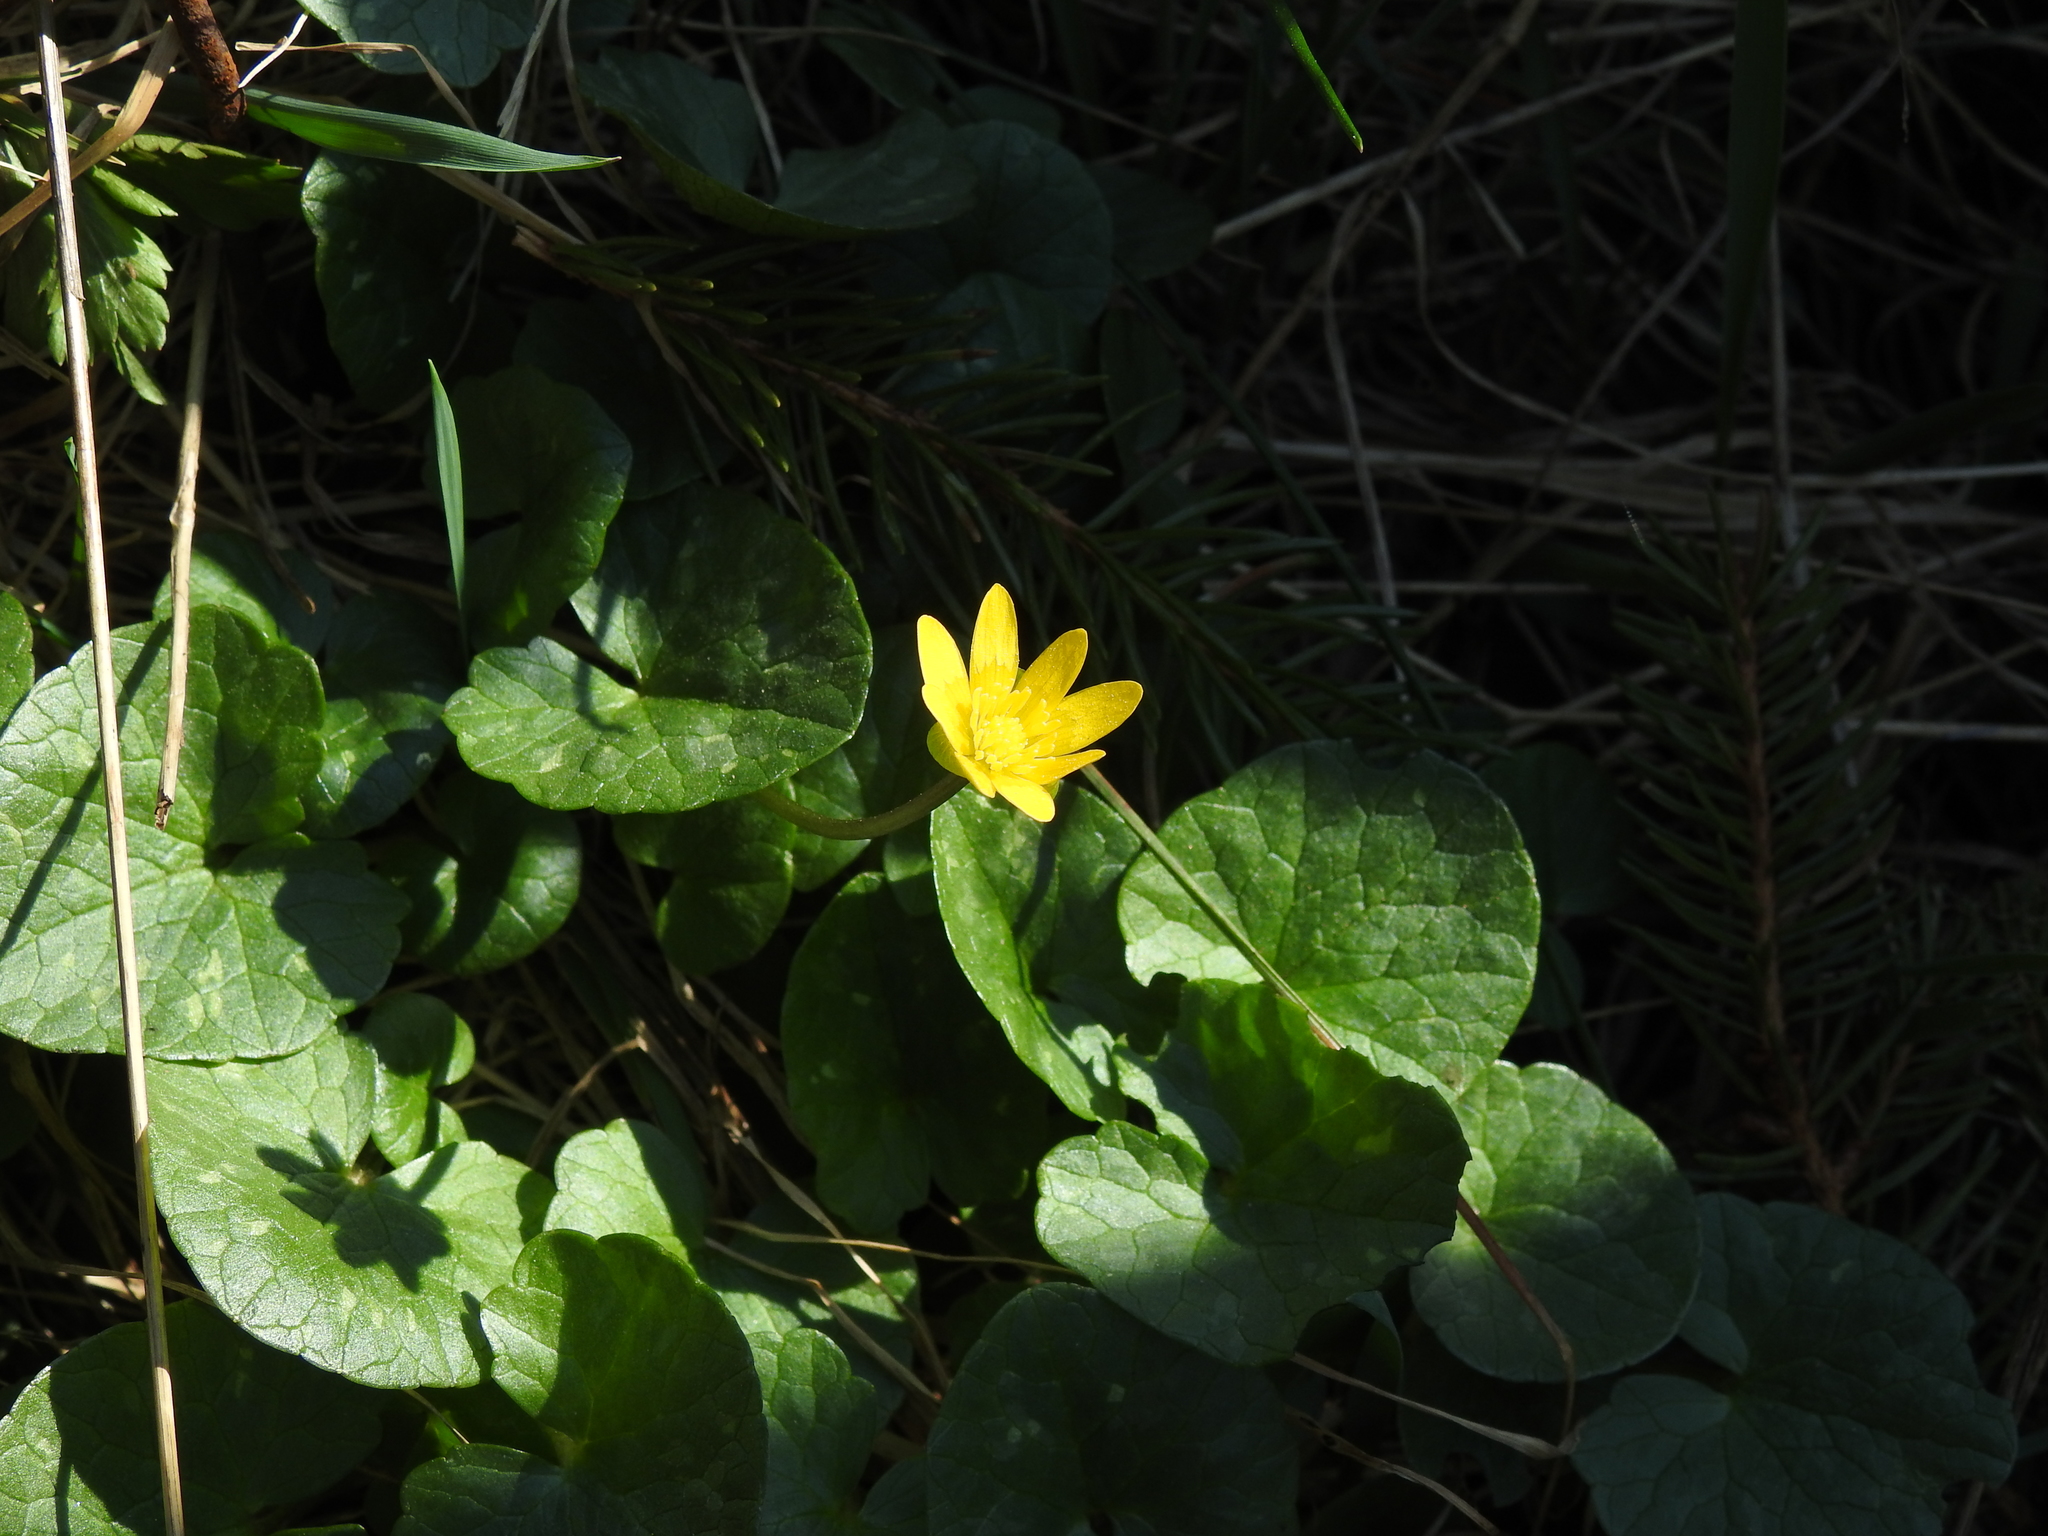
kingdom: Plantae
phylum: Tracheophyta
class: Magnoliopsida
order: Ranunculales
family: Ranunculaceae
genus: Ficaria
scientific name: Ficaria verna
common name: Lesser celandine
